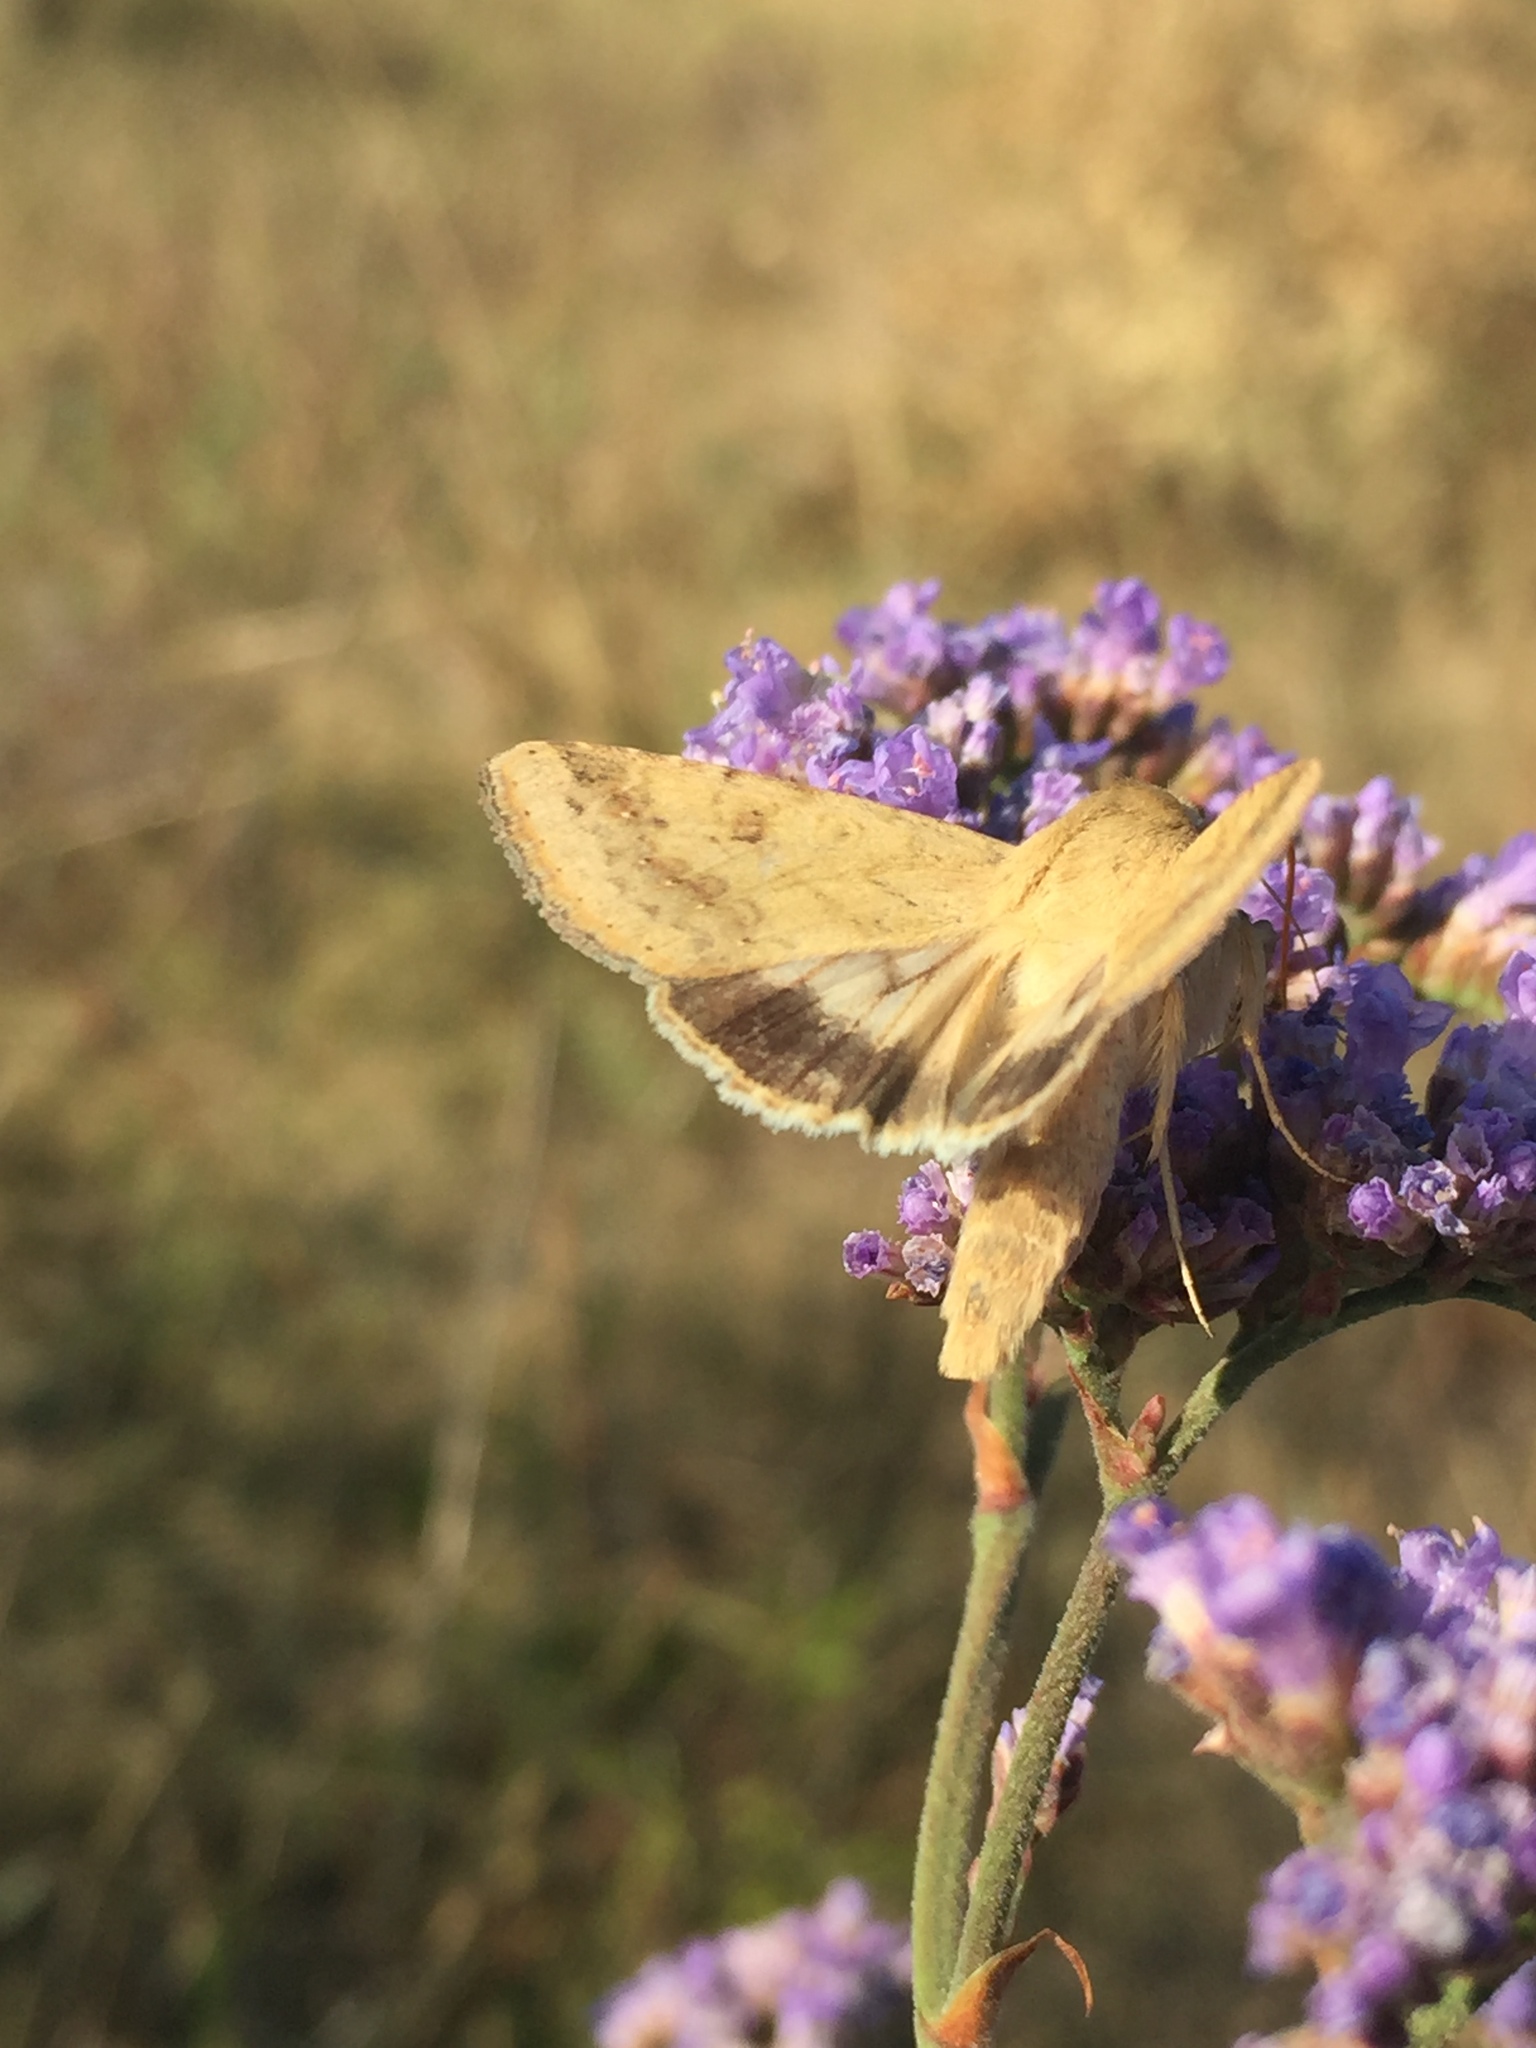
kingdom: Animalia
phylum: Arthropoda
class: Insecta
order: Lepidoptera
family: Noctuidae
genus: Helicoverpa
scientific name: Helicoverpa armigera
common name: Cotton bollworm
